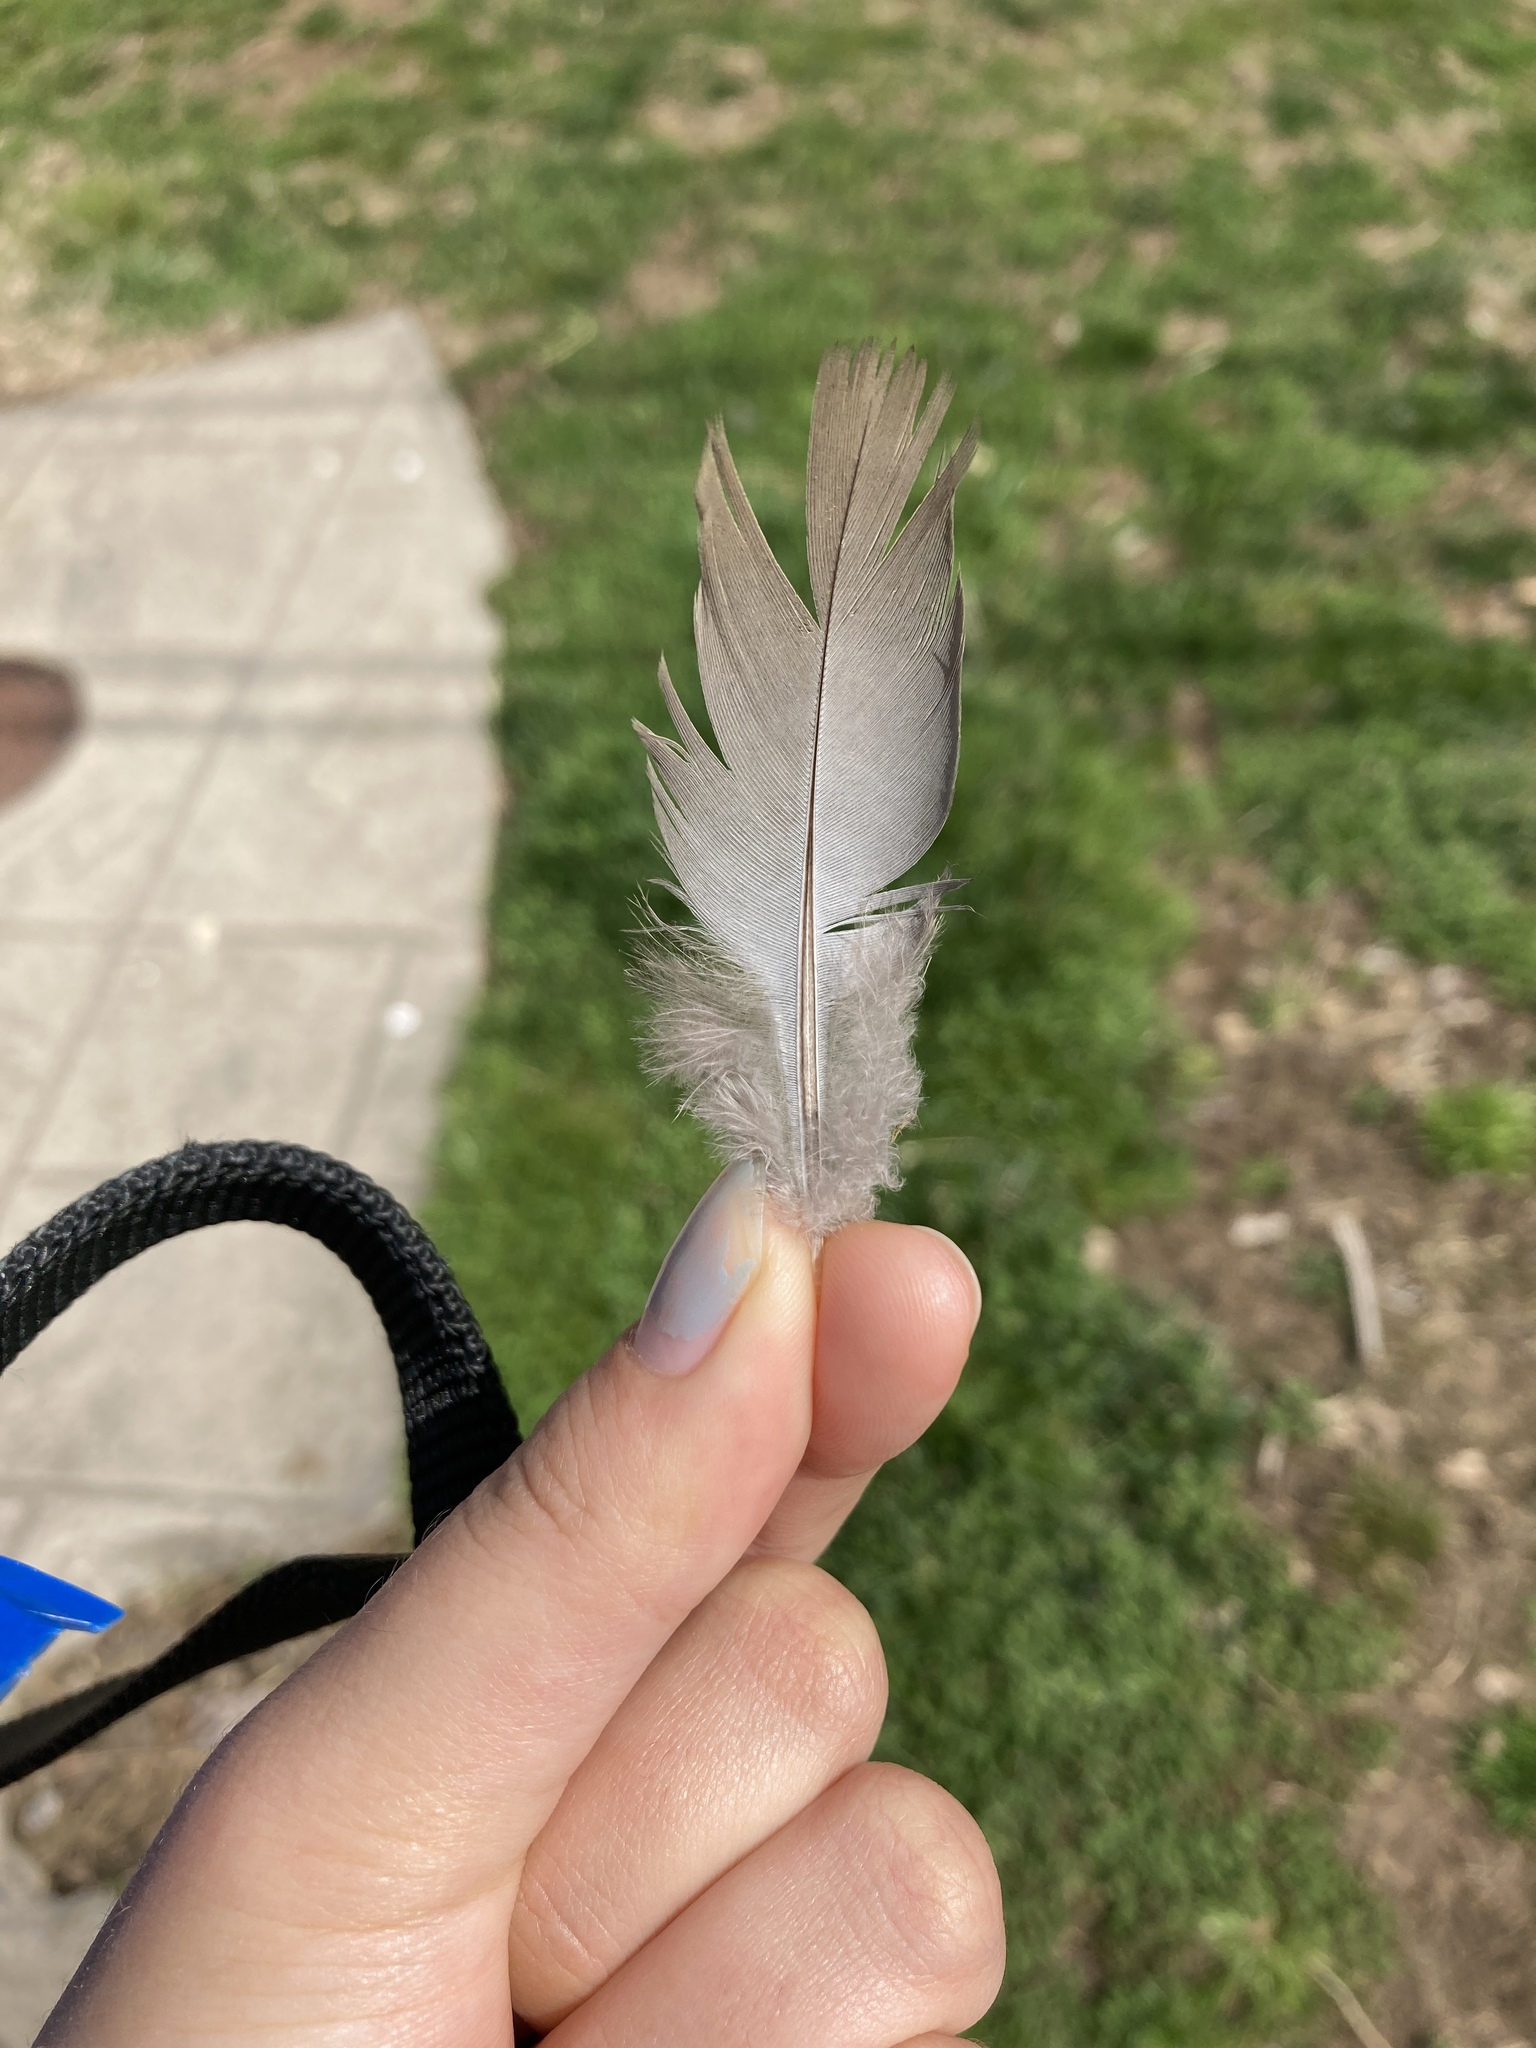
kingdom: Animalia
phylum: Chordata
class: Aves
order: Columbiformes
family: Columbidae
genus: Zenaida
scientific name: Zenaida macroura
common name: Mourning dove
